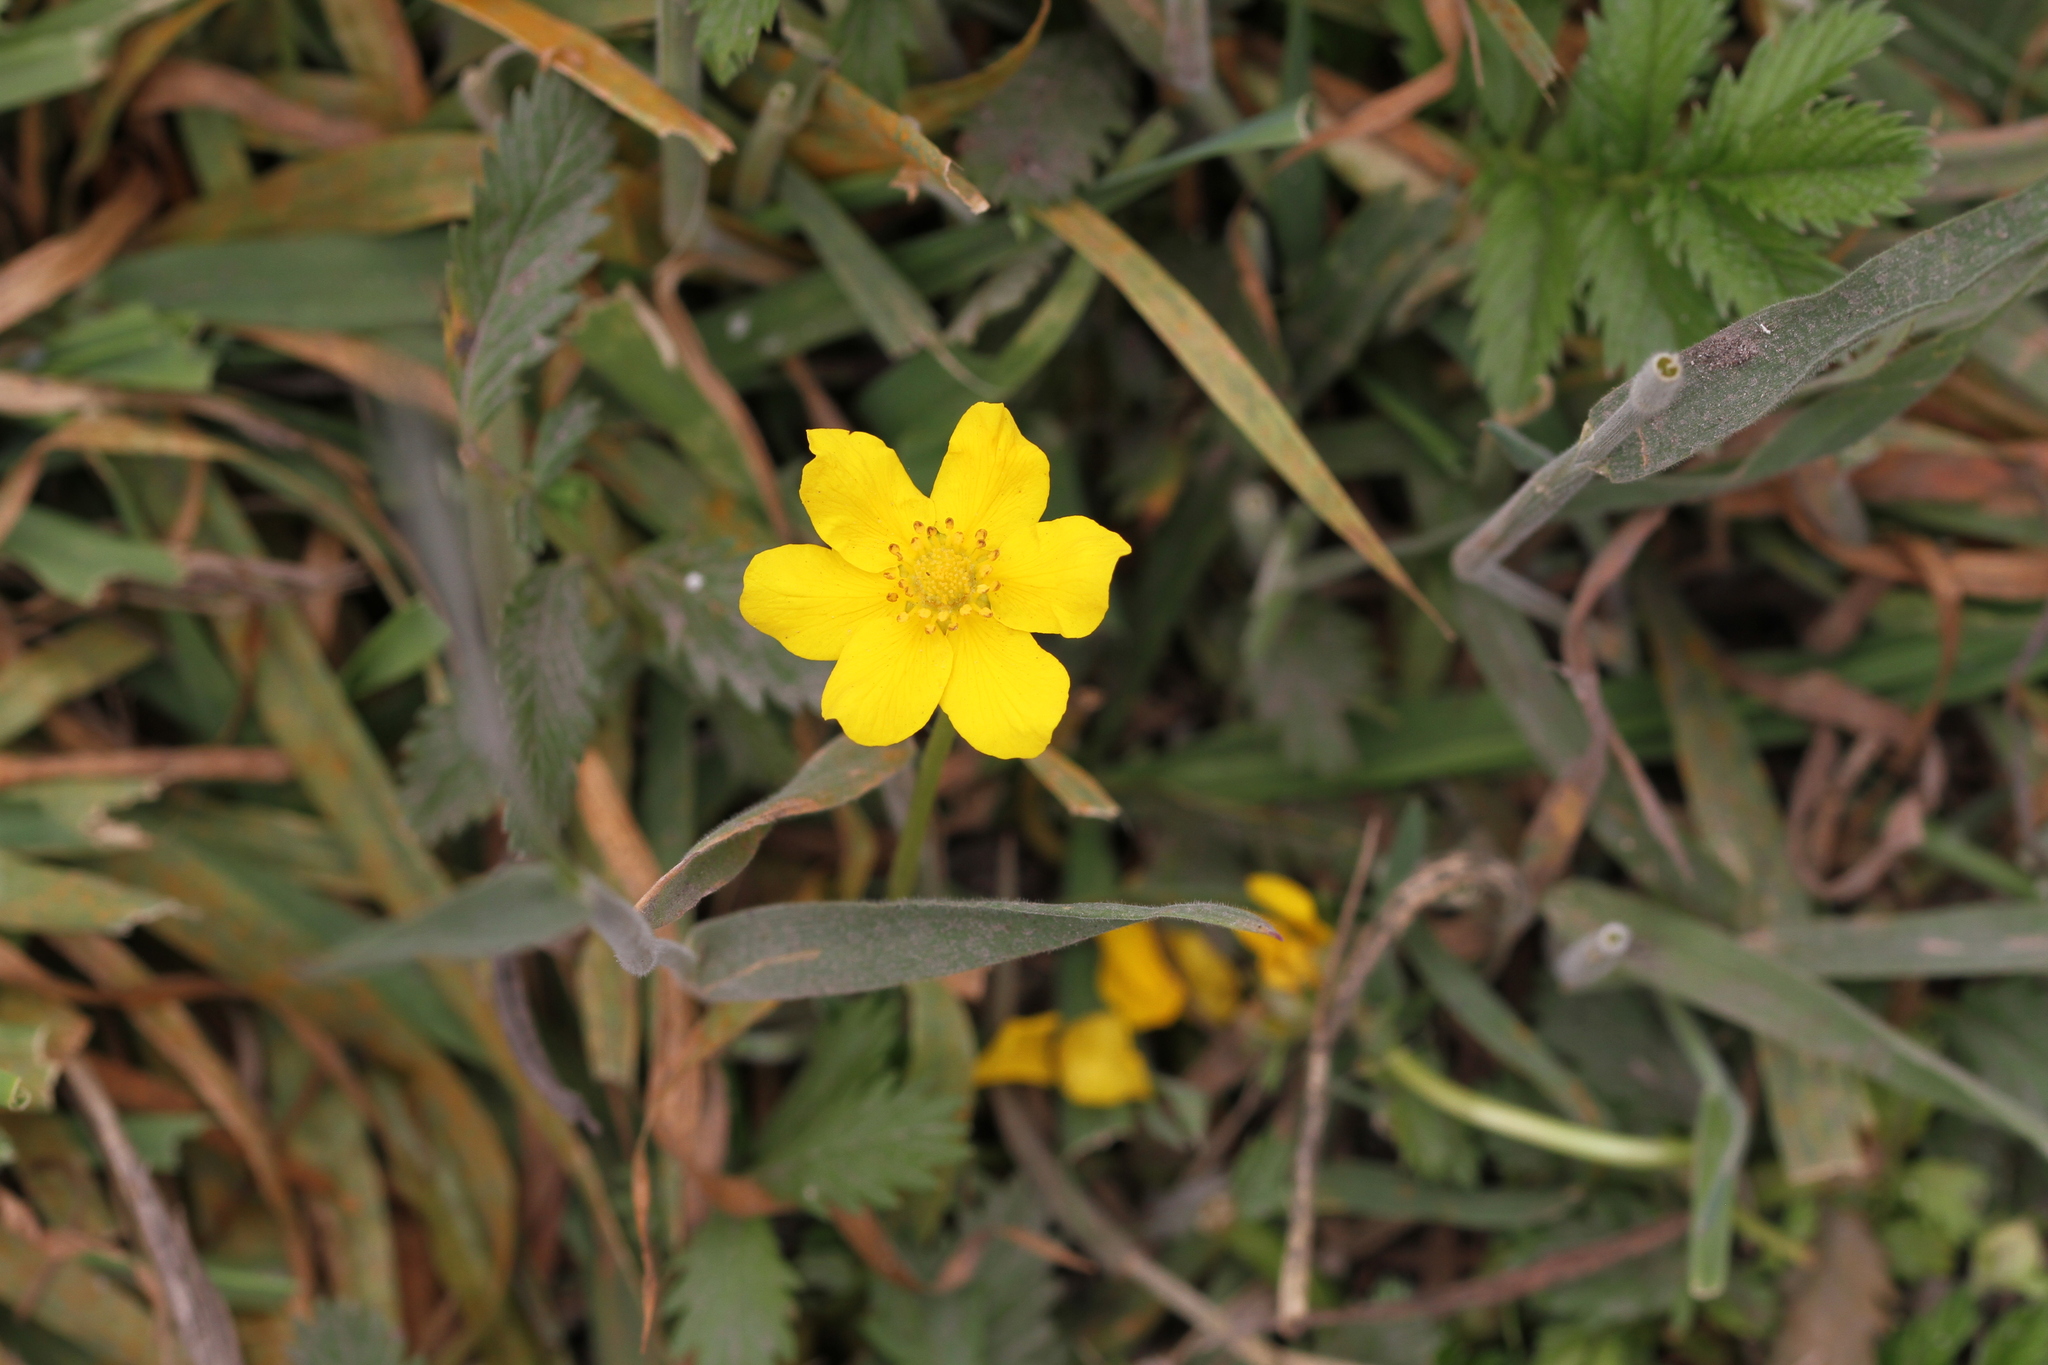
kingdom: Plantae
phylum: Tracheophyta
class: Magnoliopsida
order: Rosales
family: Rosaceae
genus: Argentina
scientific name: Argentina anserina
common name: Common silverweed
